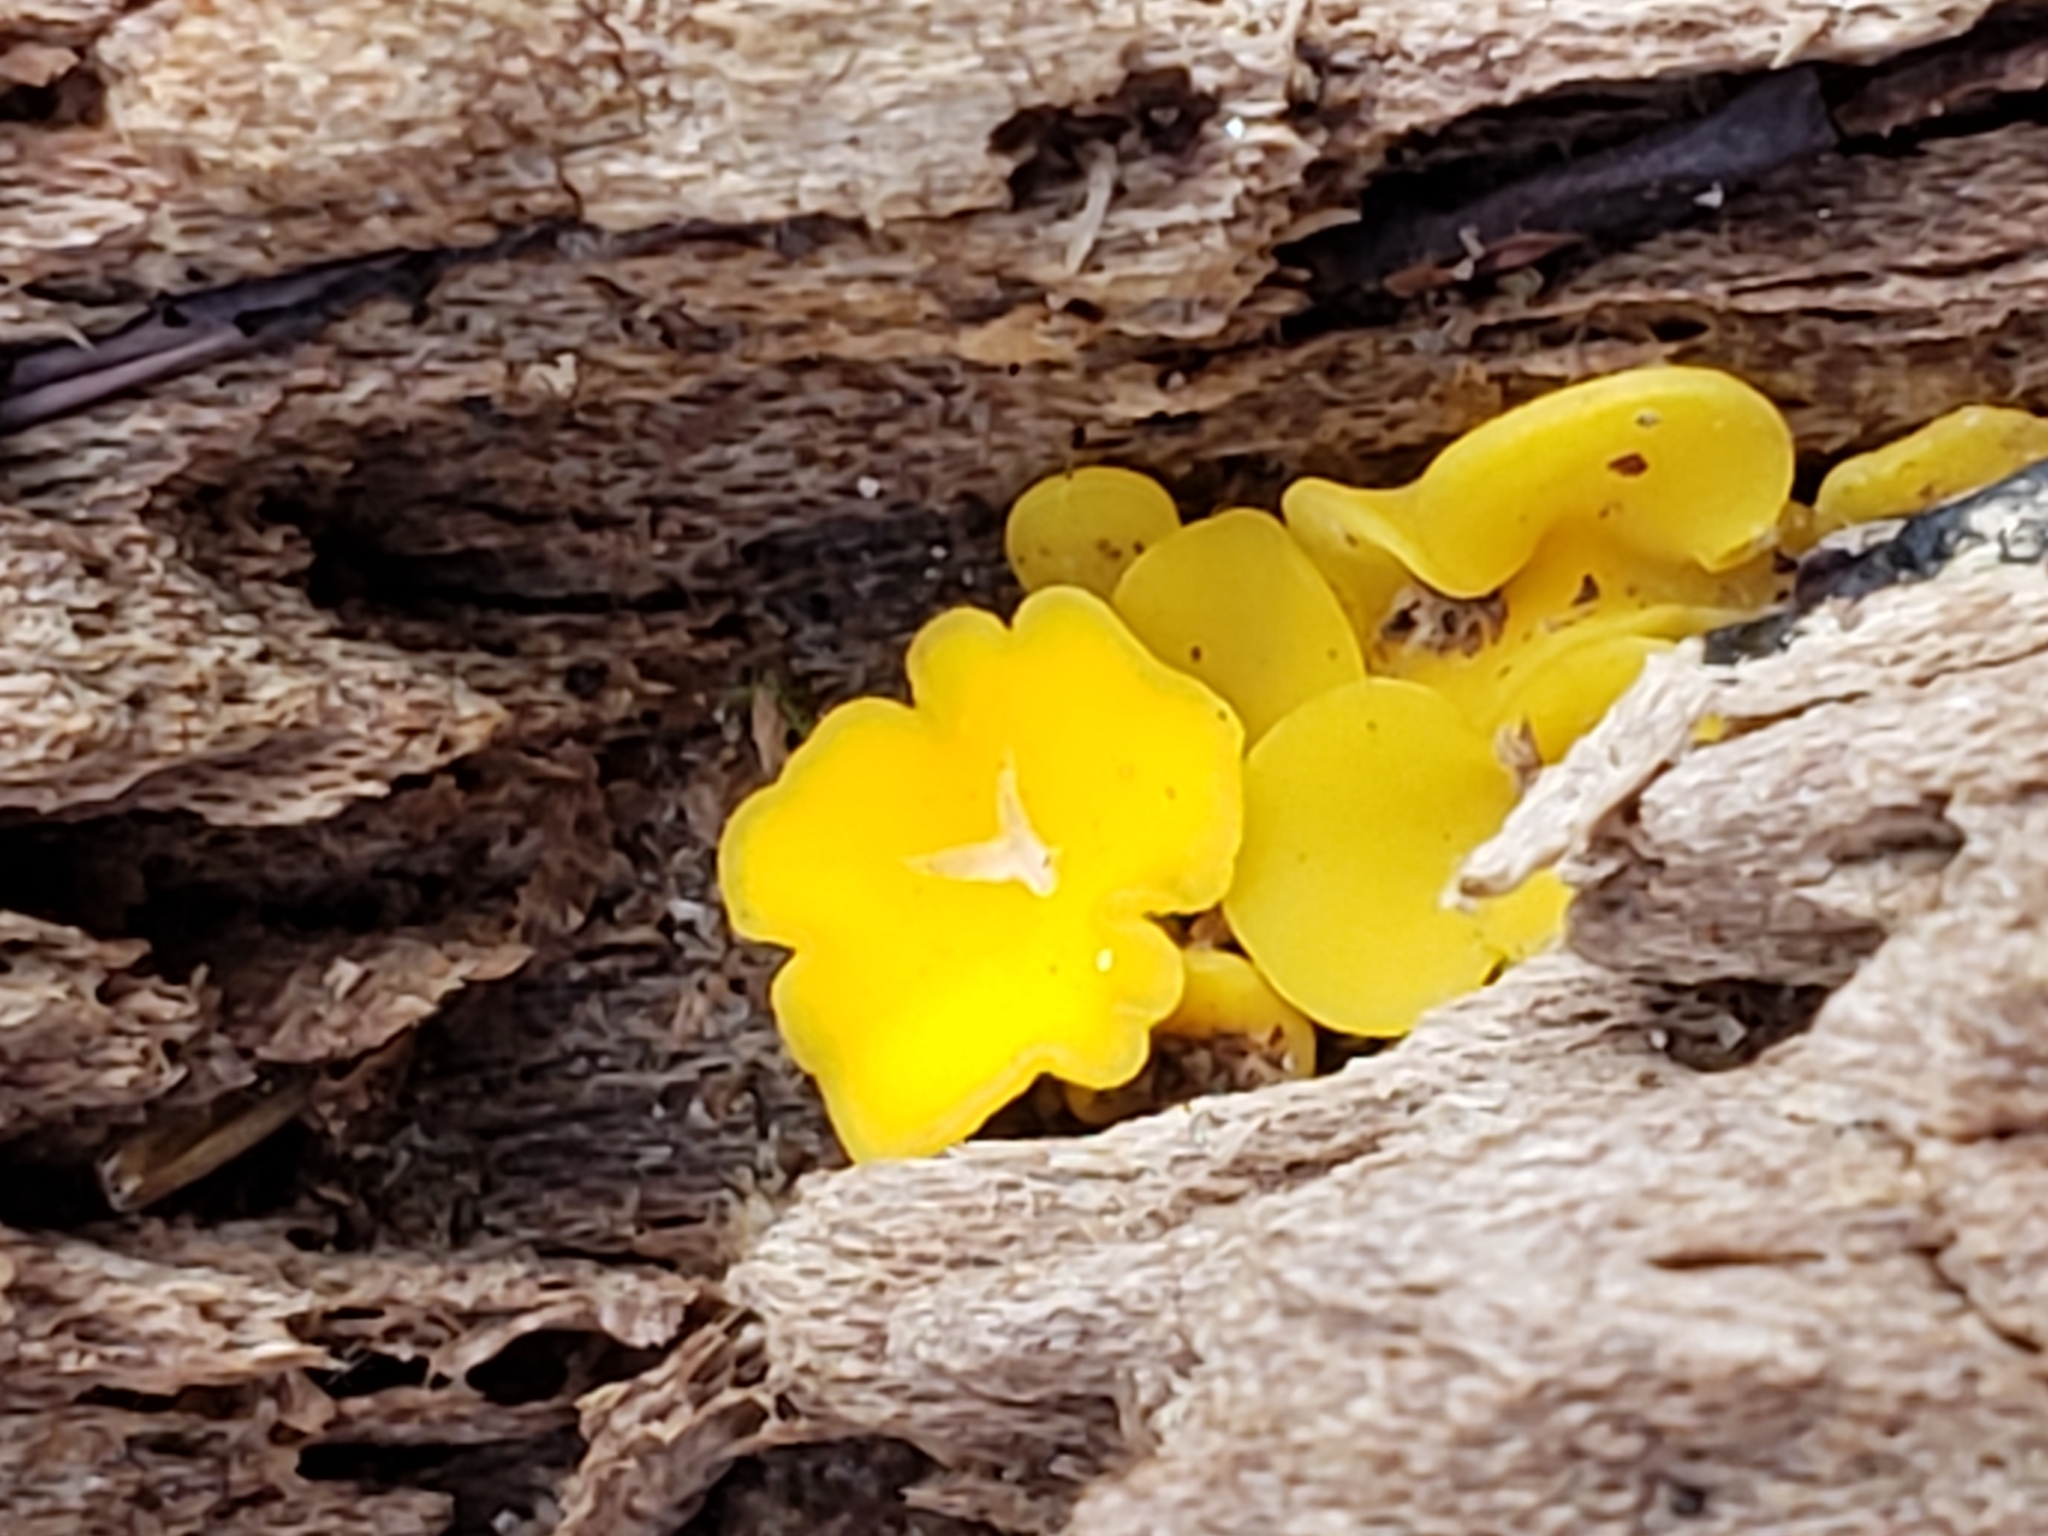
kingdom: Fungi
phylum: Ascomycota
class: Leotiomycetes
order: Helotiales
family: Pezizellaceae
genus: Calycina
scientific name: Calycina citrina
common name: Yellow fairy cups
